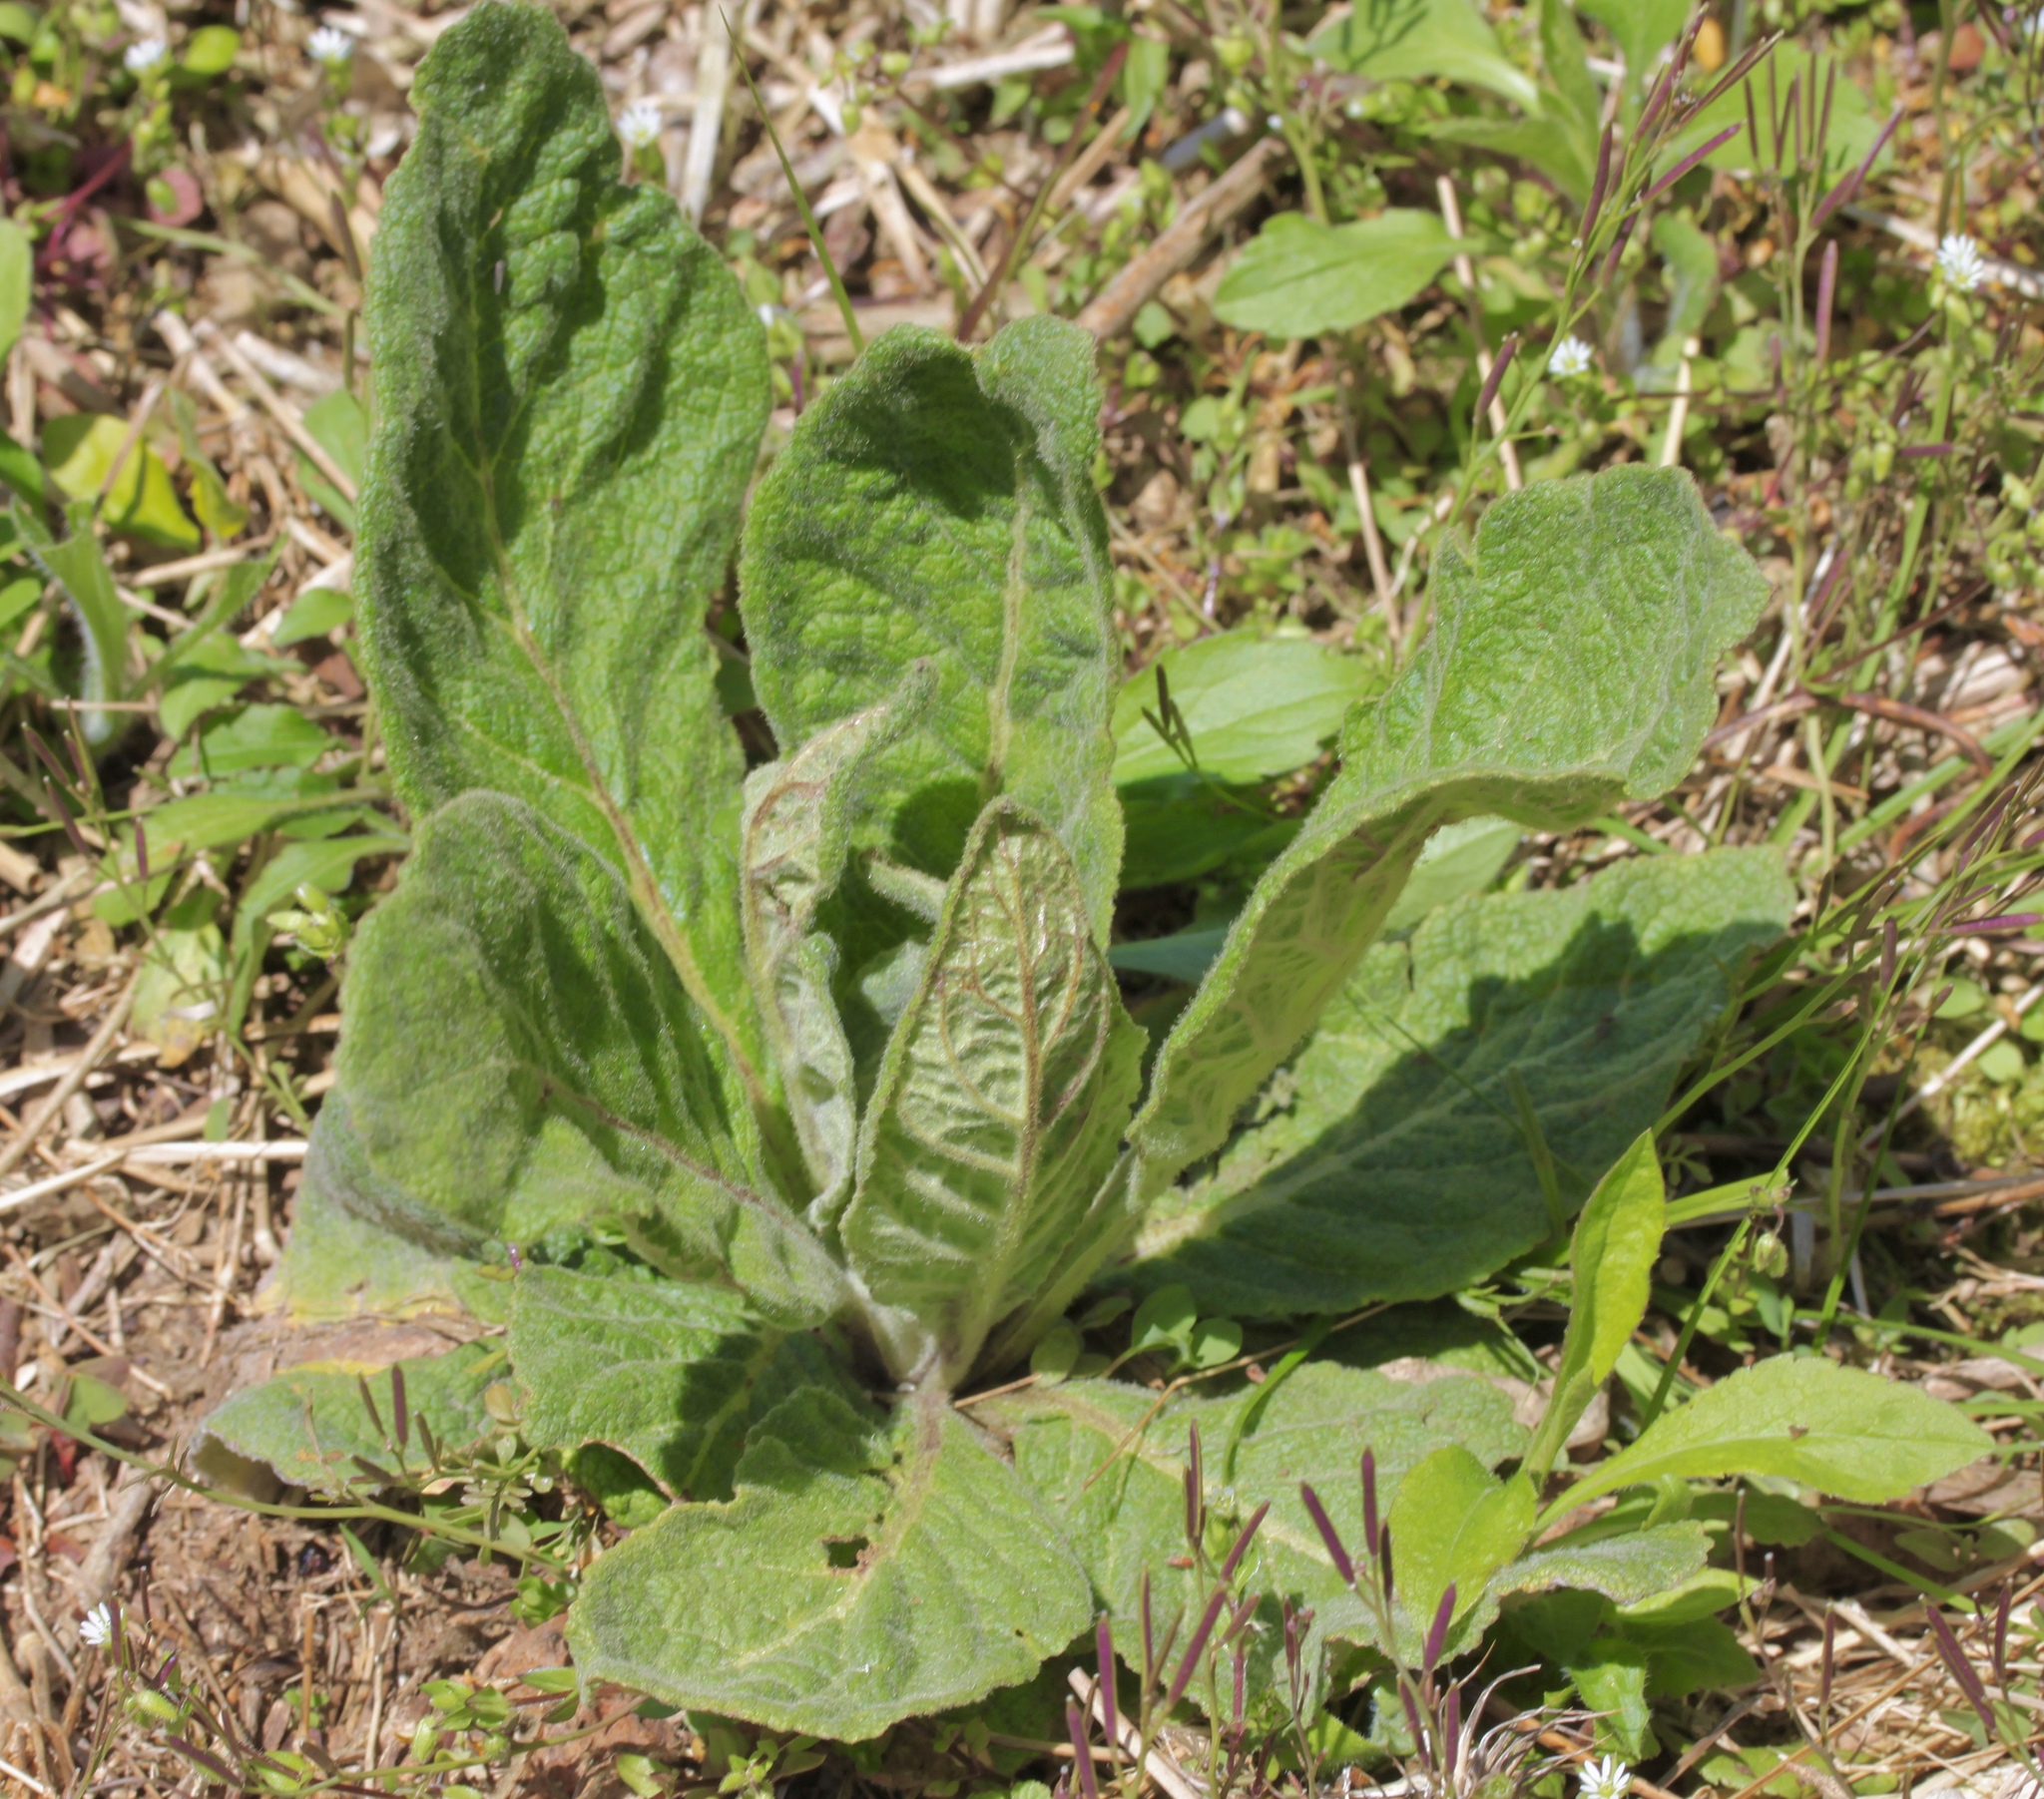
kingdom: Plantae
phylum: Tracheophyta
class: Magnoliopsida
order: Lamiales
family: Scrophulariaceae
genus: Verbascum
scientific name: Verbascum thapsus
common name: Common mullein
